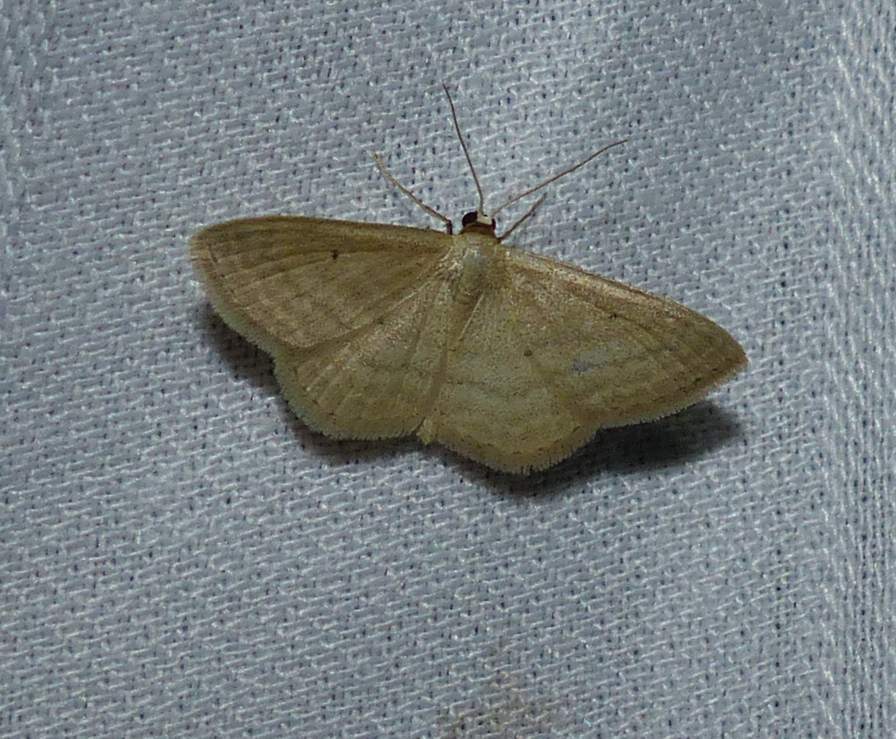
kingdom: Animalia
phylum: Arthropoda
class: Insecta
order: Lepidoptera
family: Geometridae
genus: Scopula
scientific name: Scopula inductata
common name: Soft-lined wave
